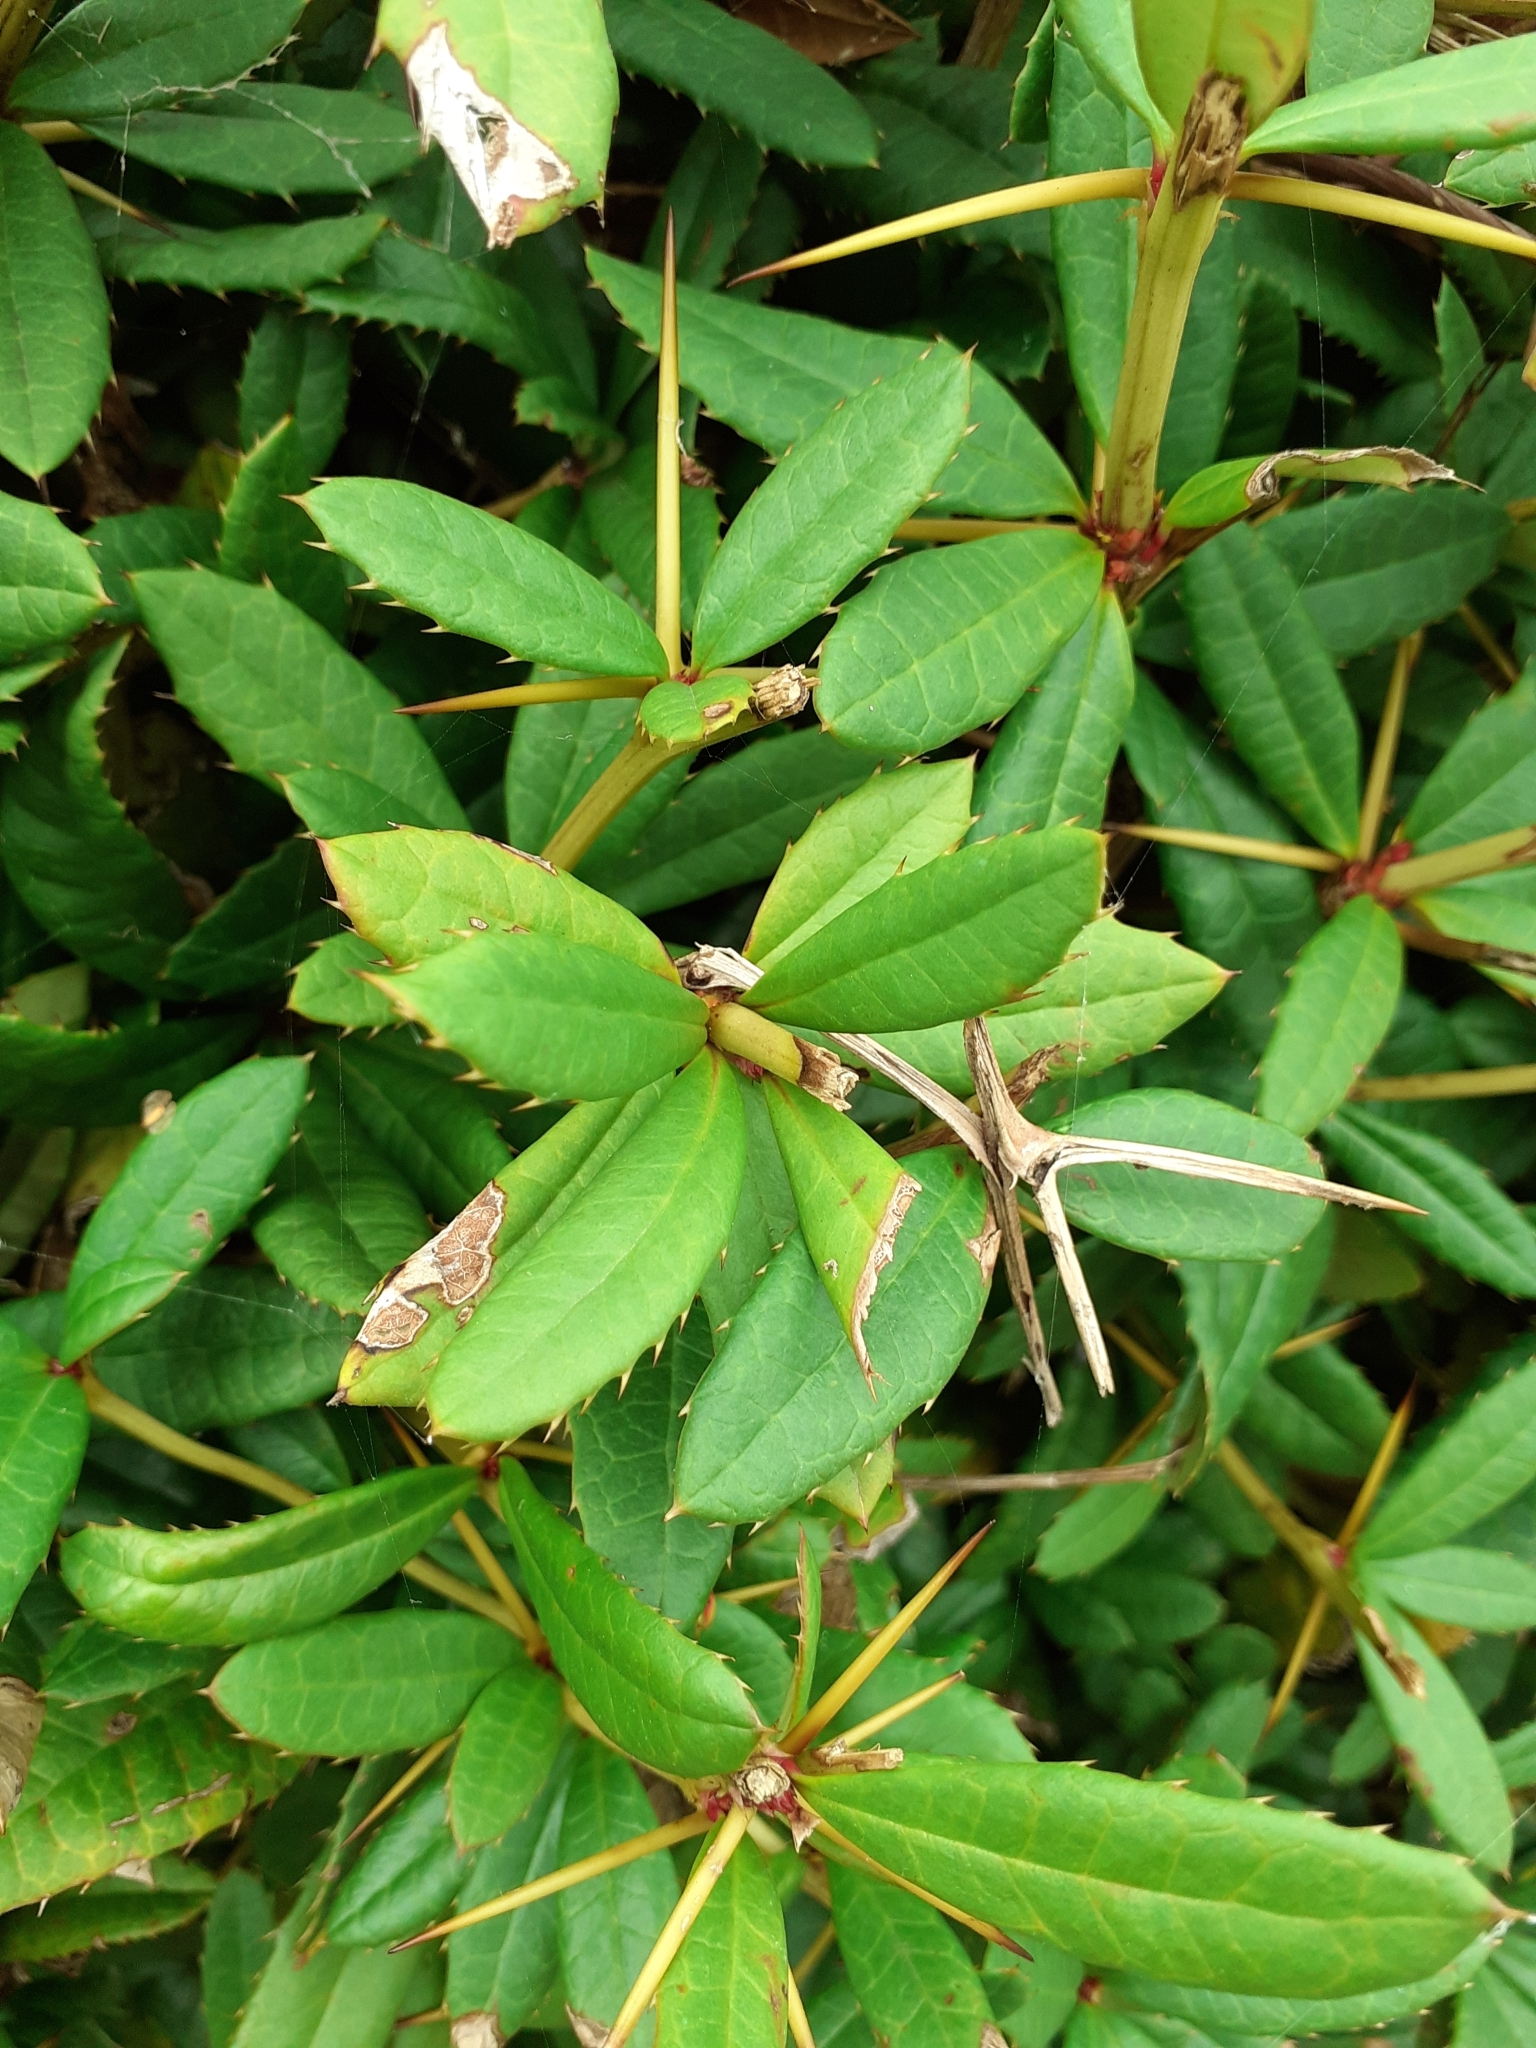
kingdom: Plantae
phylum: Tracheophyta
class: Magnoliopsida
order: Ranunculales
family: Berberidaceae
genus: Berberis
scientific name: Berberis julianae
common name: Wintergreen barberry
